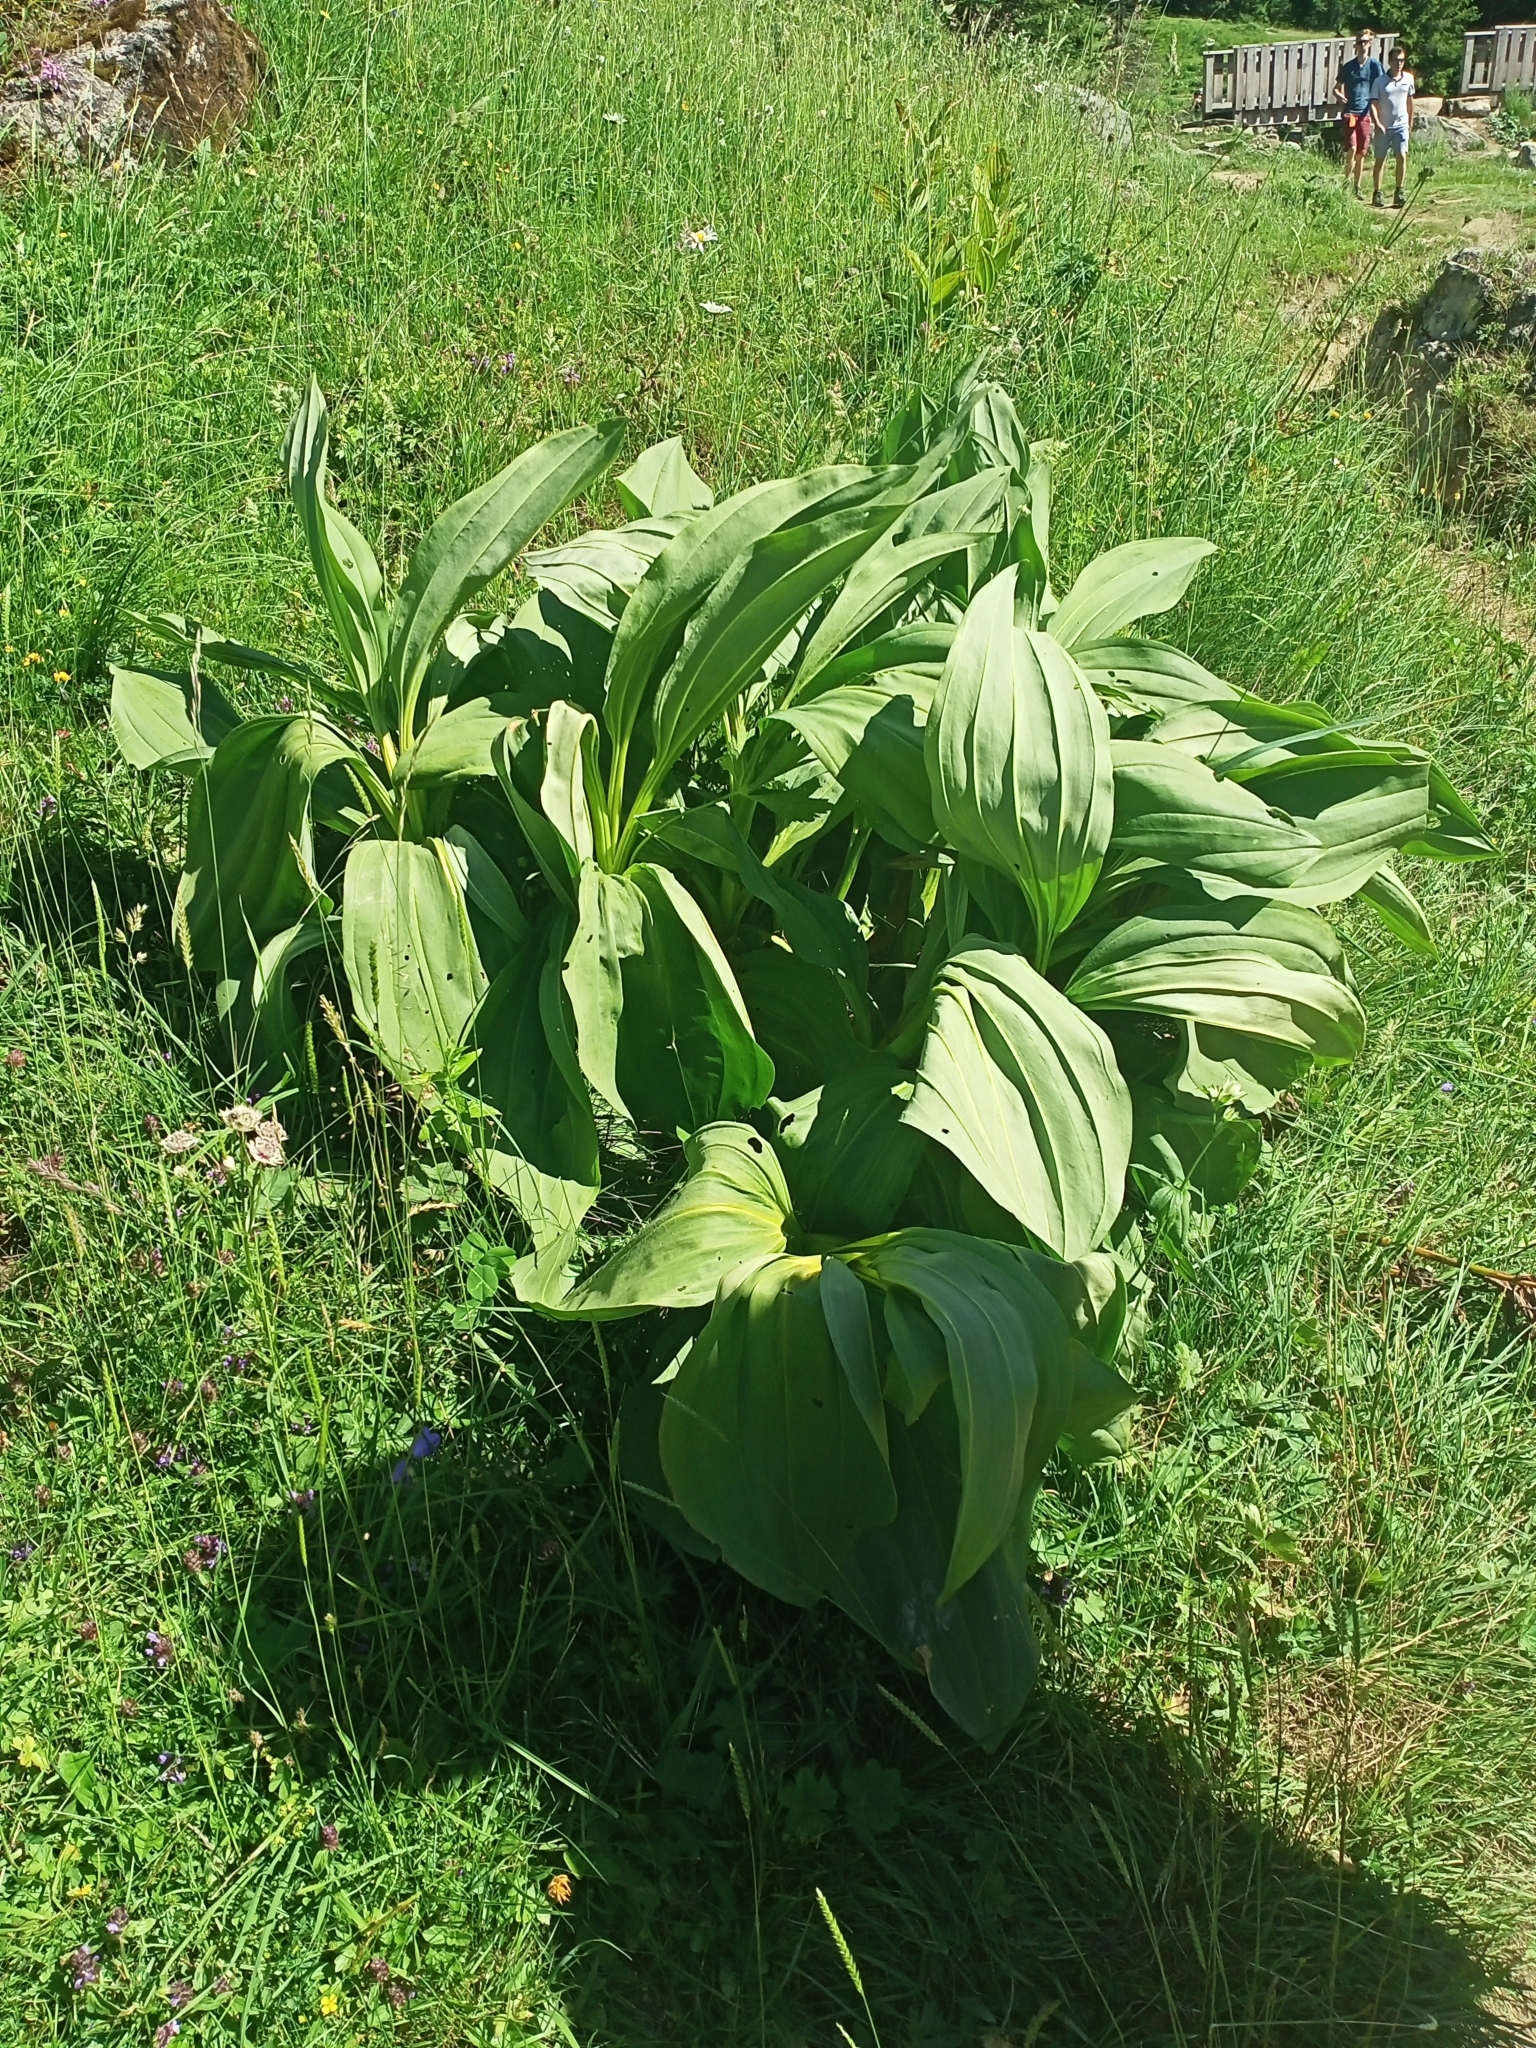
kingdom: Plantae
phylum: Tracheophyta
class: Magnoliopsida
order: Gentianales
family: Gentianaceae
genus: Gentiana
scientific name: Gentiana lutea
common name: Great yellow gentian
